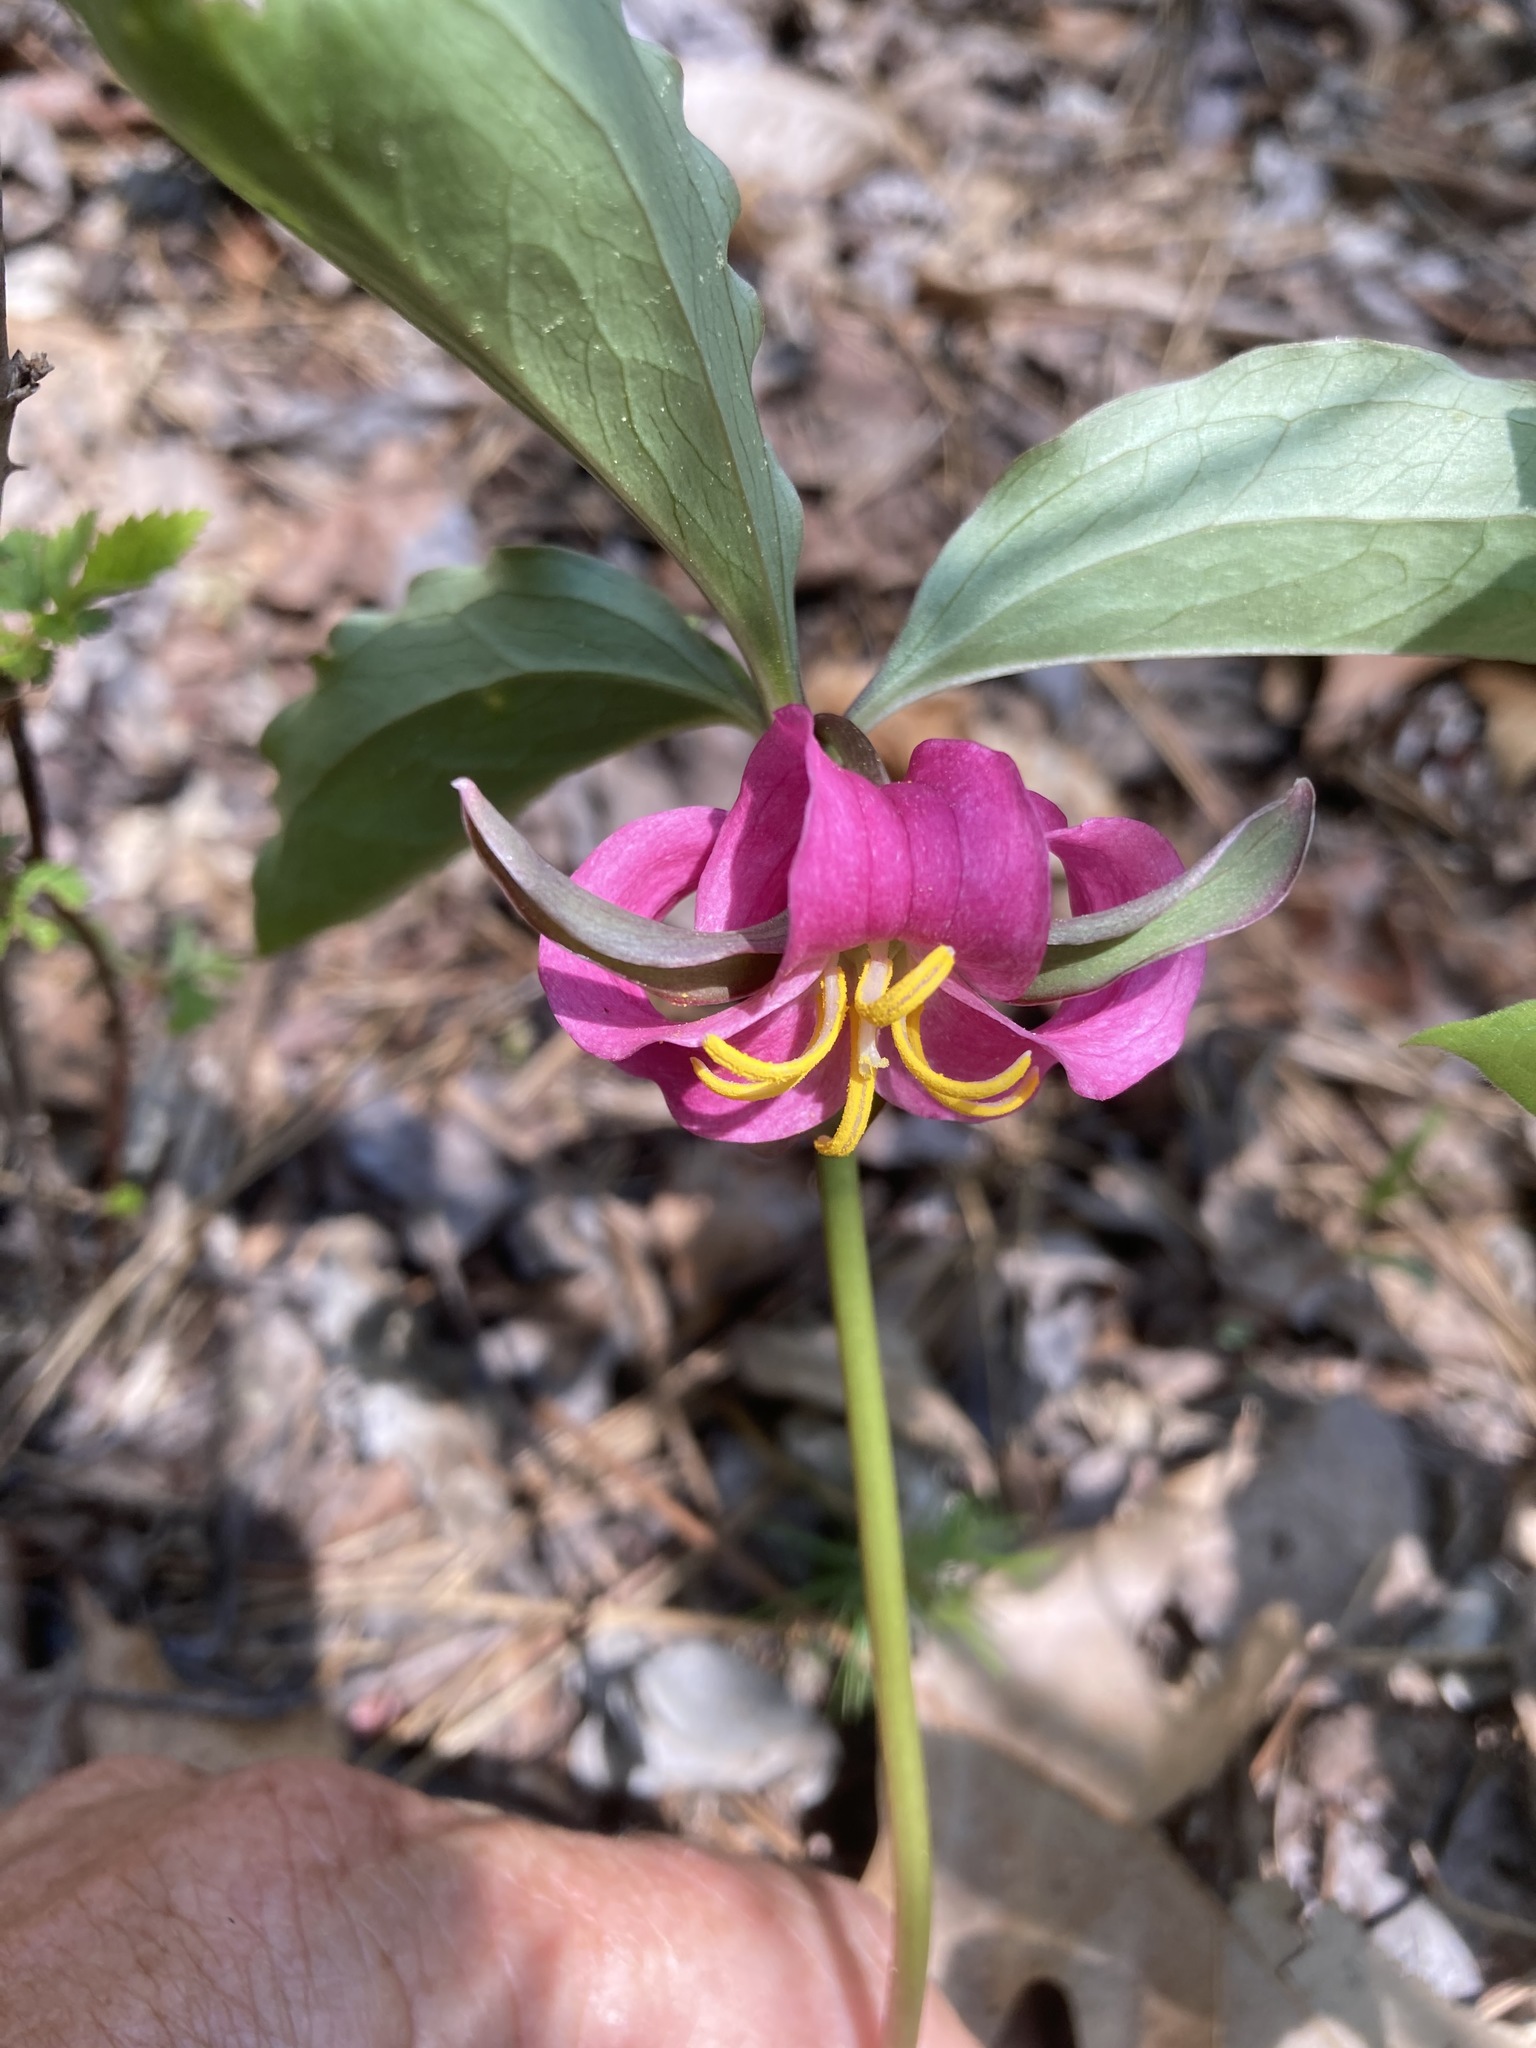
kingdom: Plantae
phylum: Tracheophyta
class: Liliopsida
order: Liliales
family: Melanthiaceae
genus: Trillium
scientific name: Trillium catesbaei
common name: Bashful trillium
